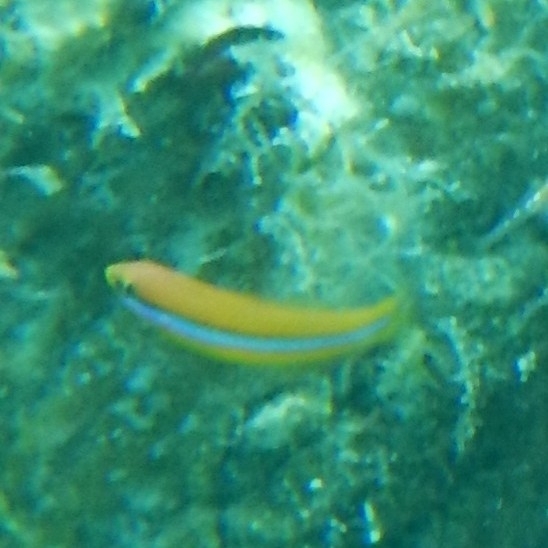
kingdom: Animalia
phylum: Chordata
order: Perciformes
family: Labridae
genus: Halichoeres
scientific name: Halichoeres garnoti
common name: Yellowhead wrasse
